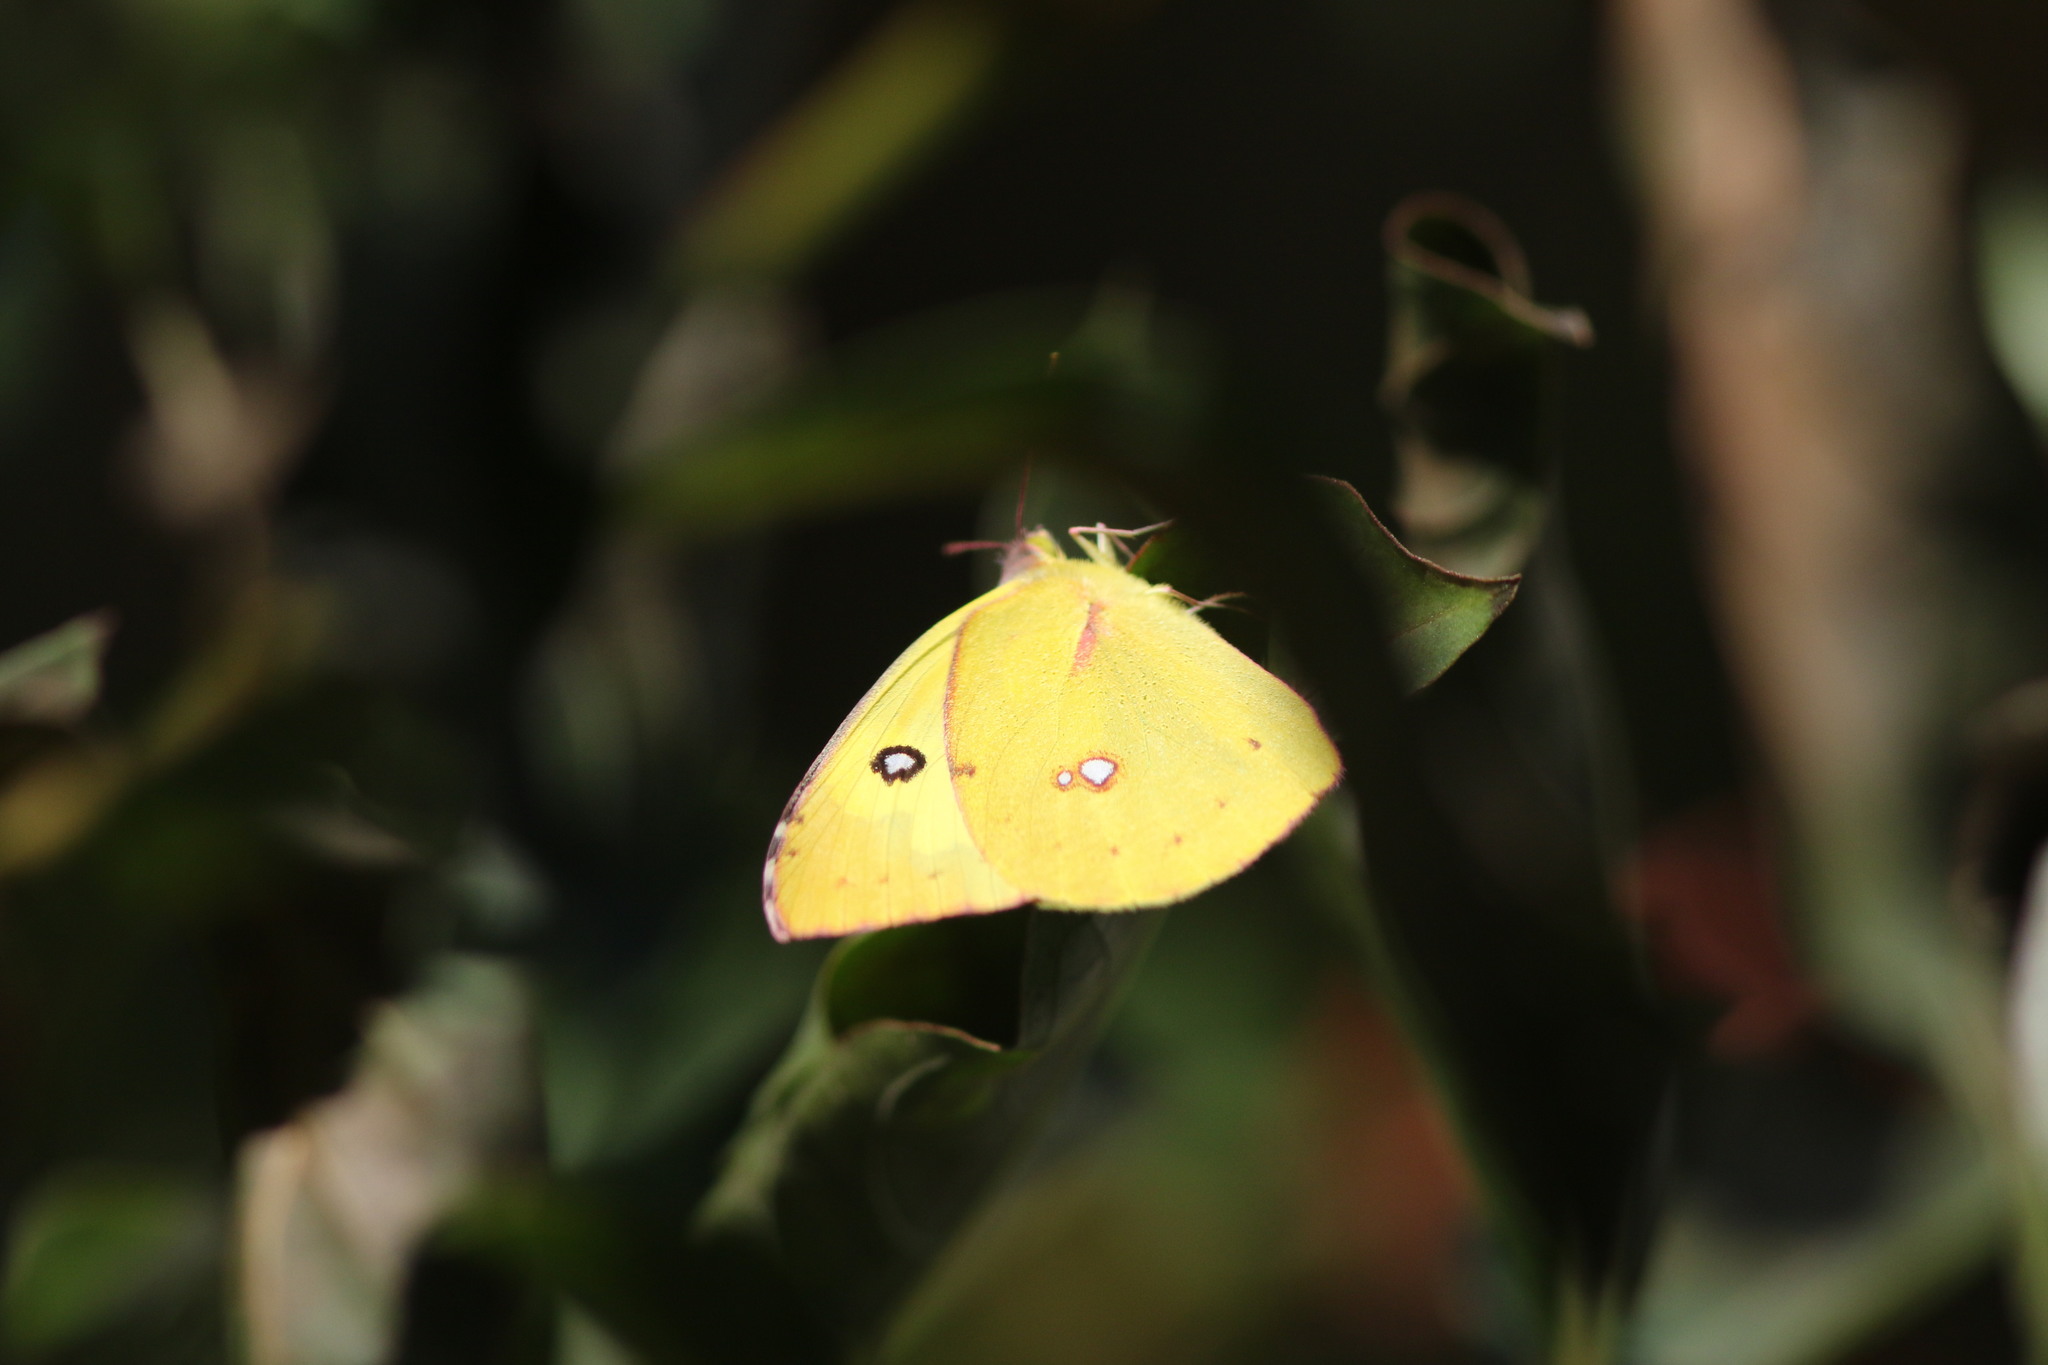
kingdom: Animalia
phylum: Arthropoda
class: Insecta
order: Lepidoptera
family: Pieridae
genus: Zerene
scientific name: Zerene cesonia
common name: Southern dogface
